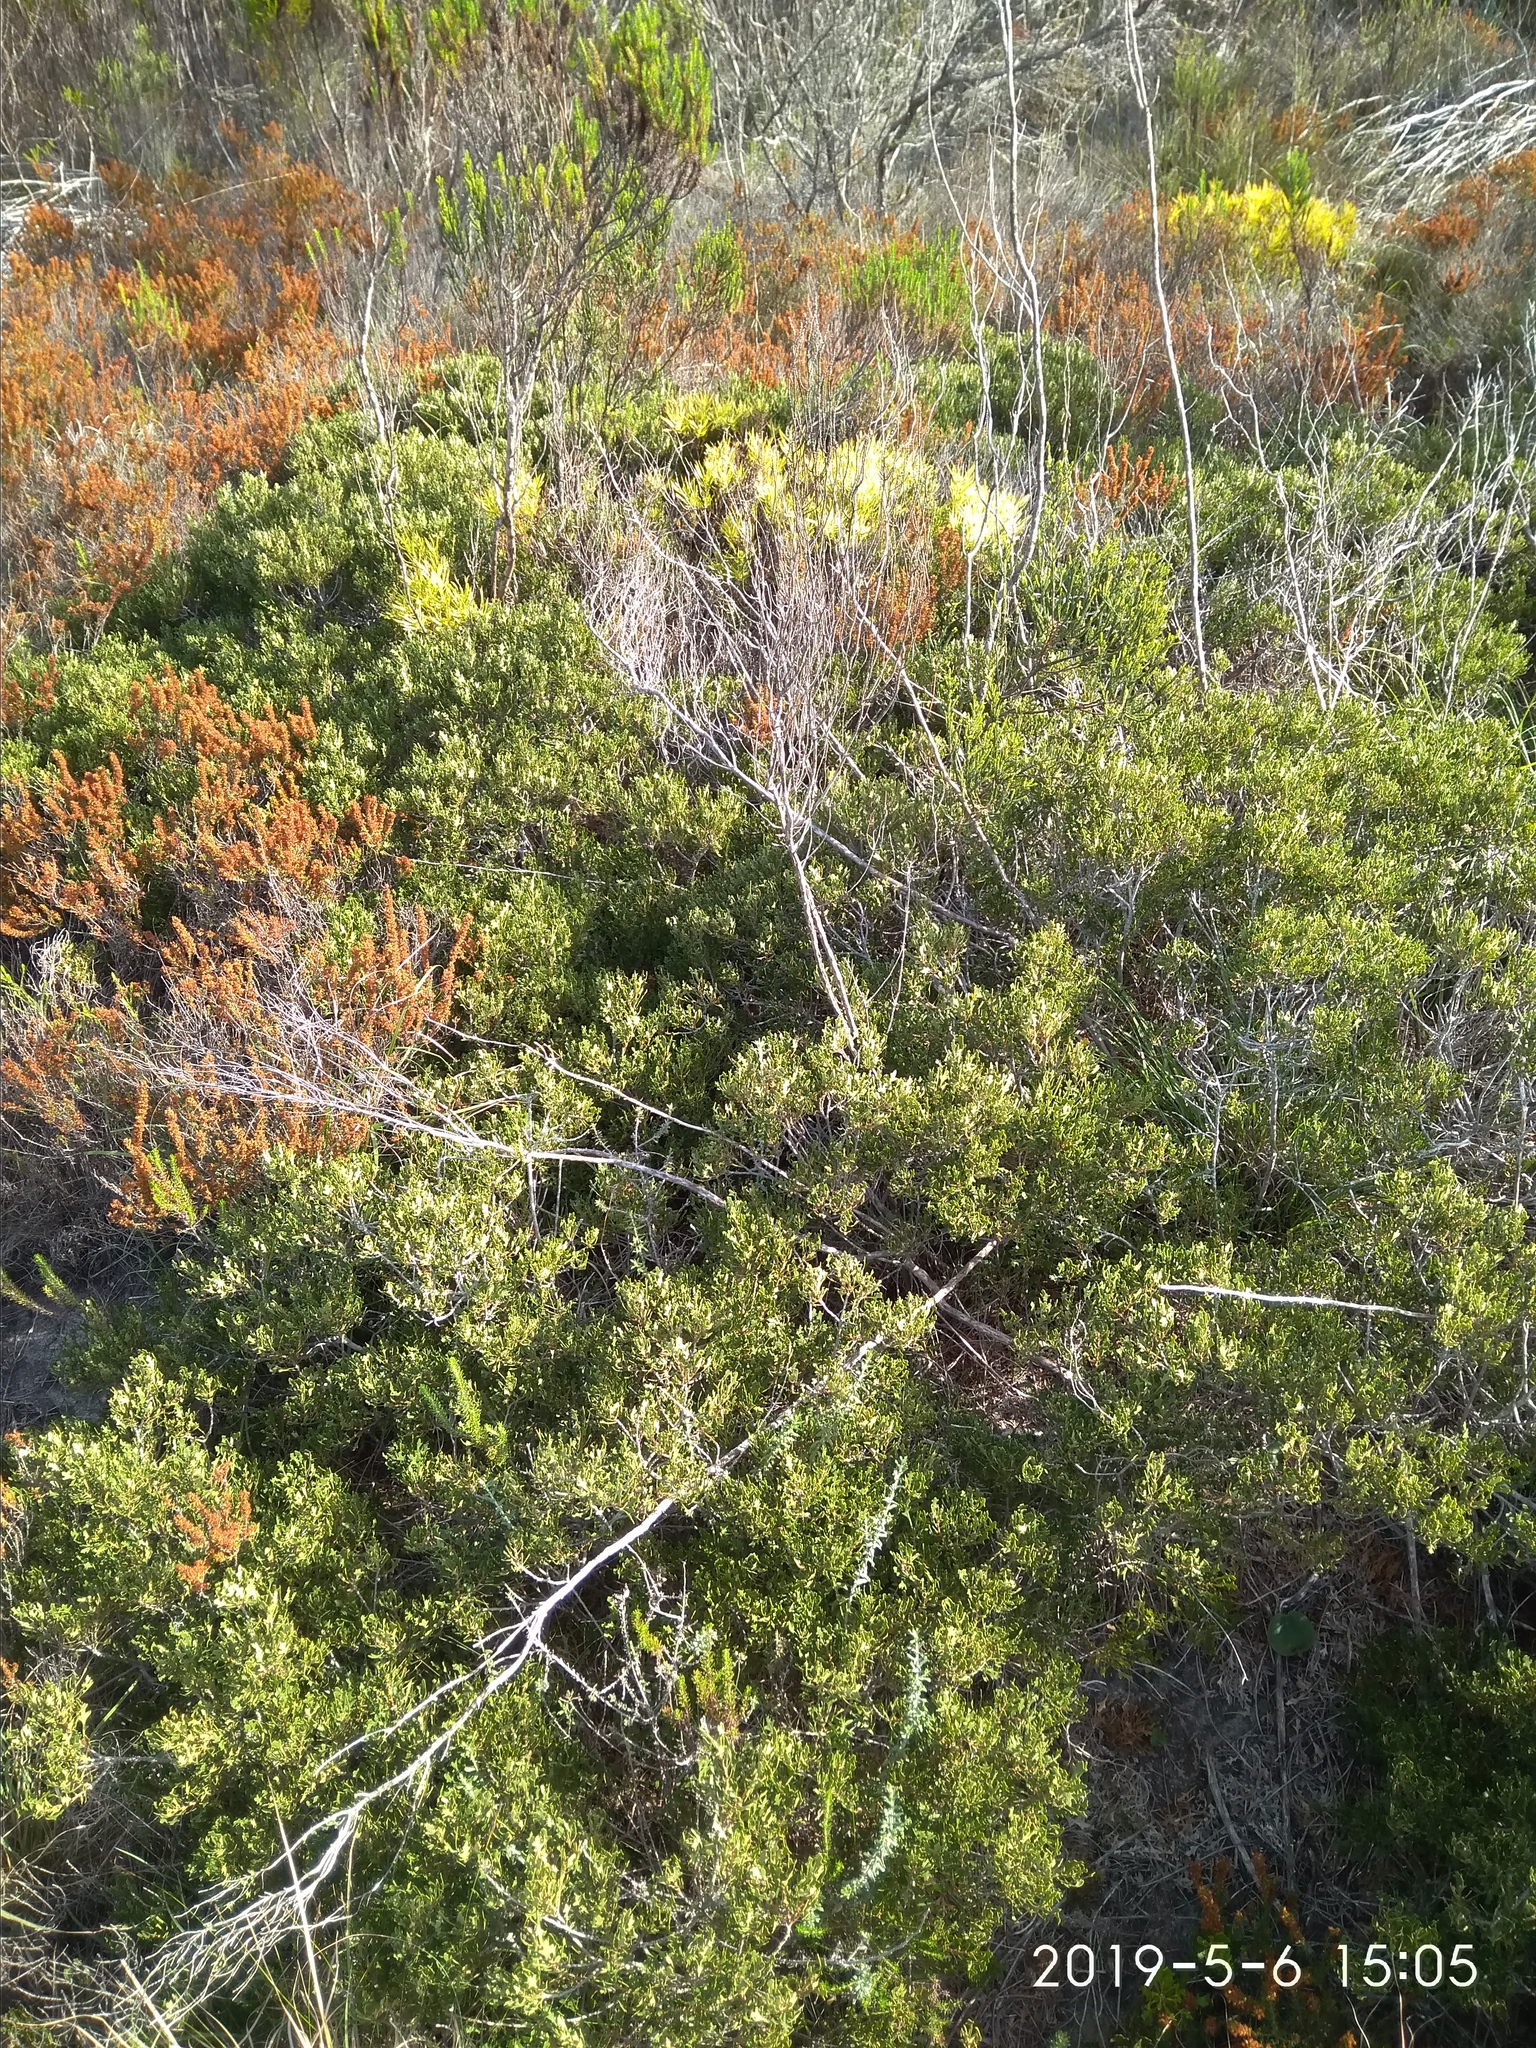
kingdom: Plantae
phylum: Tracheophyta
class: Magnoliopsida
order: Fagales
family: Myricaceae
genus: Morella
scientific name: Morella quercifolia
